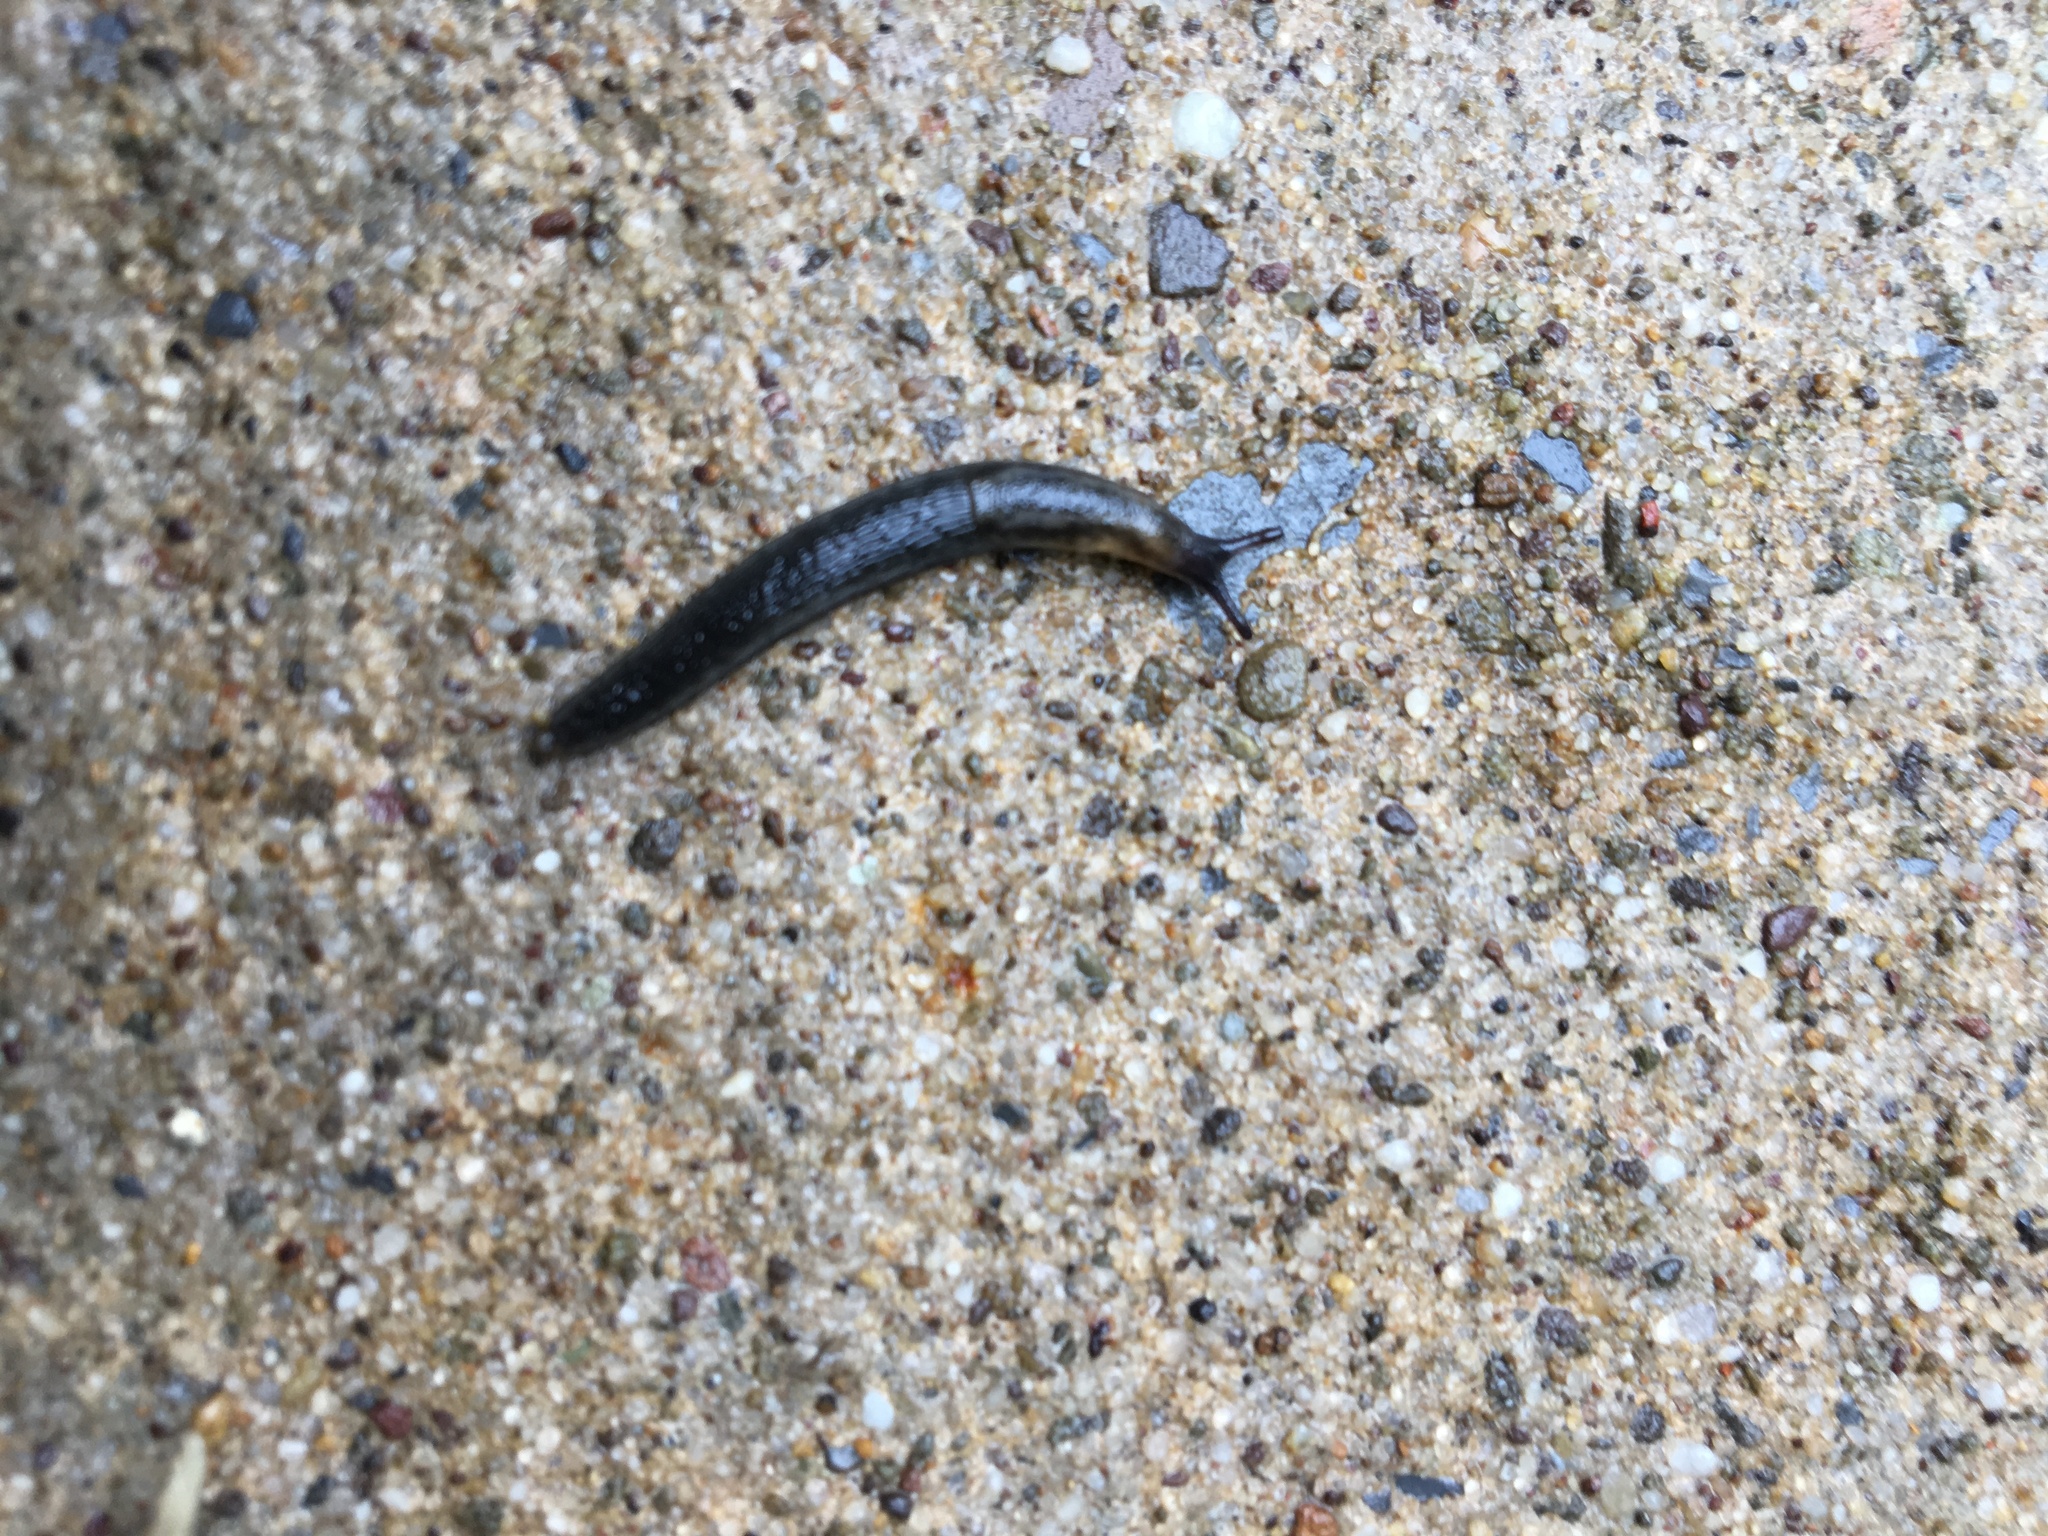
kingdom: Animalia
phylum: Mollusca
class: Gastropoda
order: Stylommatophora
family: Arionidae
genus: Arion
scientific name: Arion hortensis
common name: Garden arion
